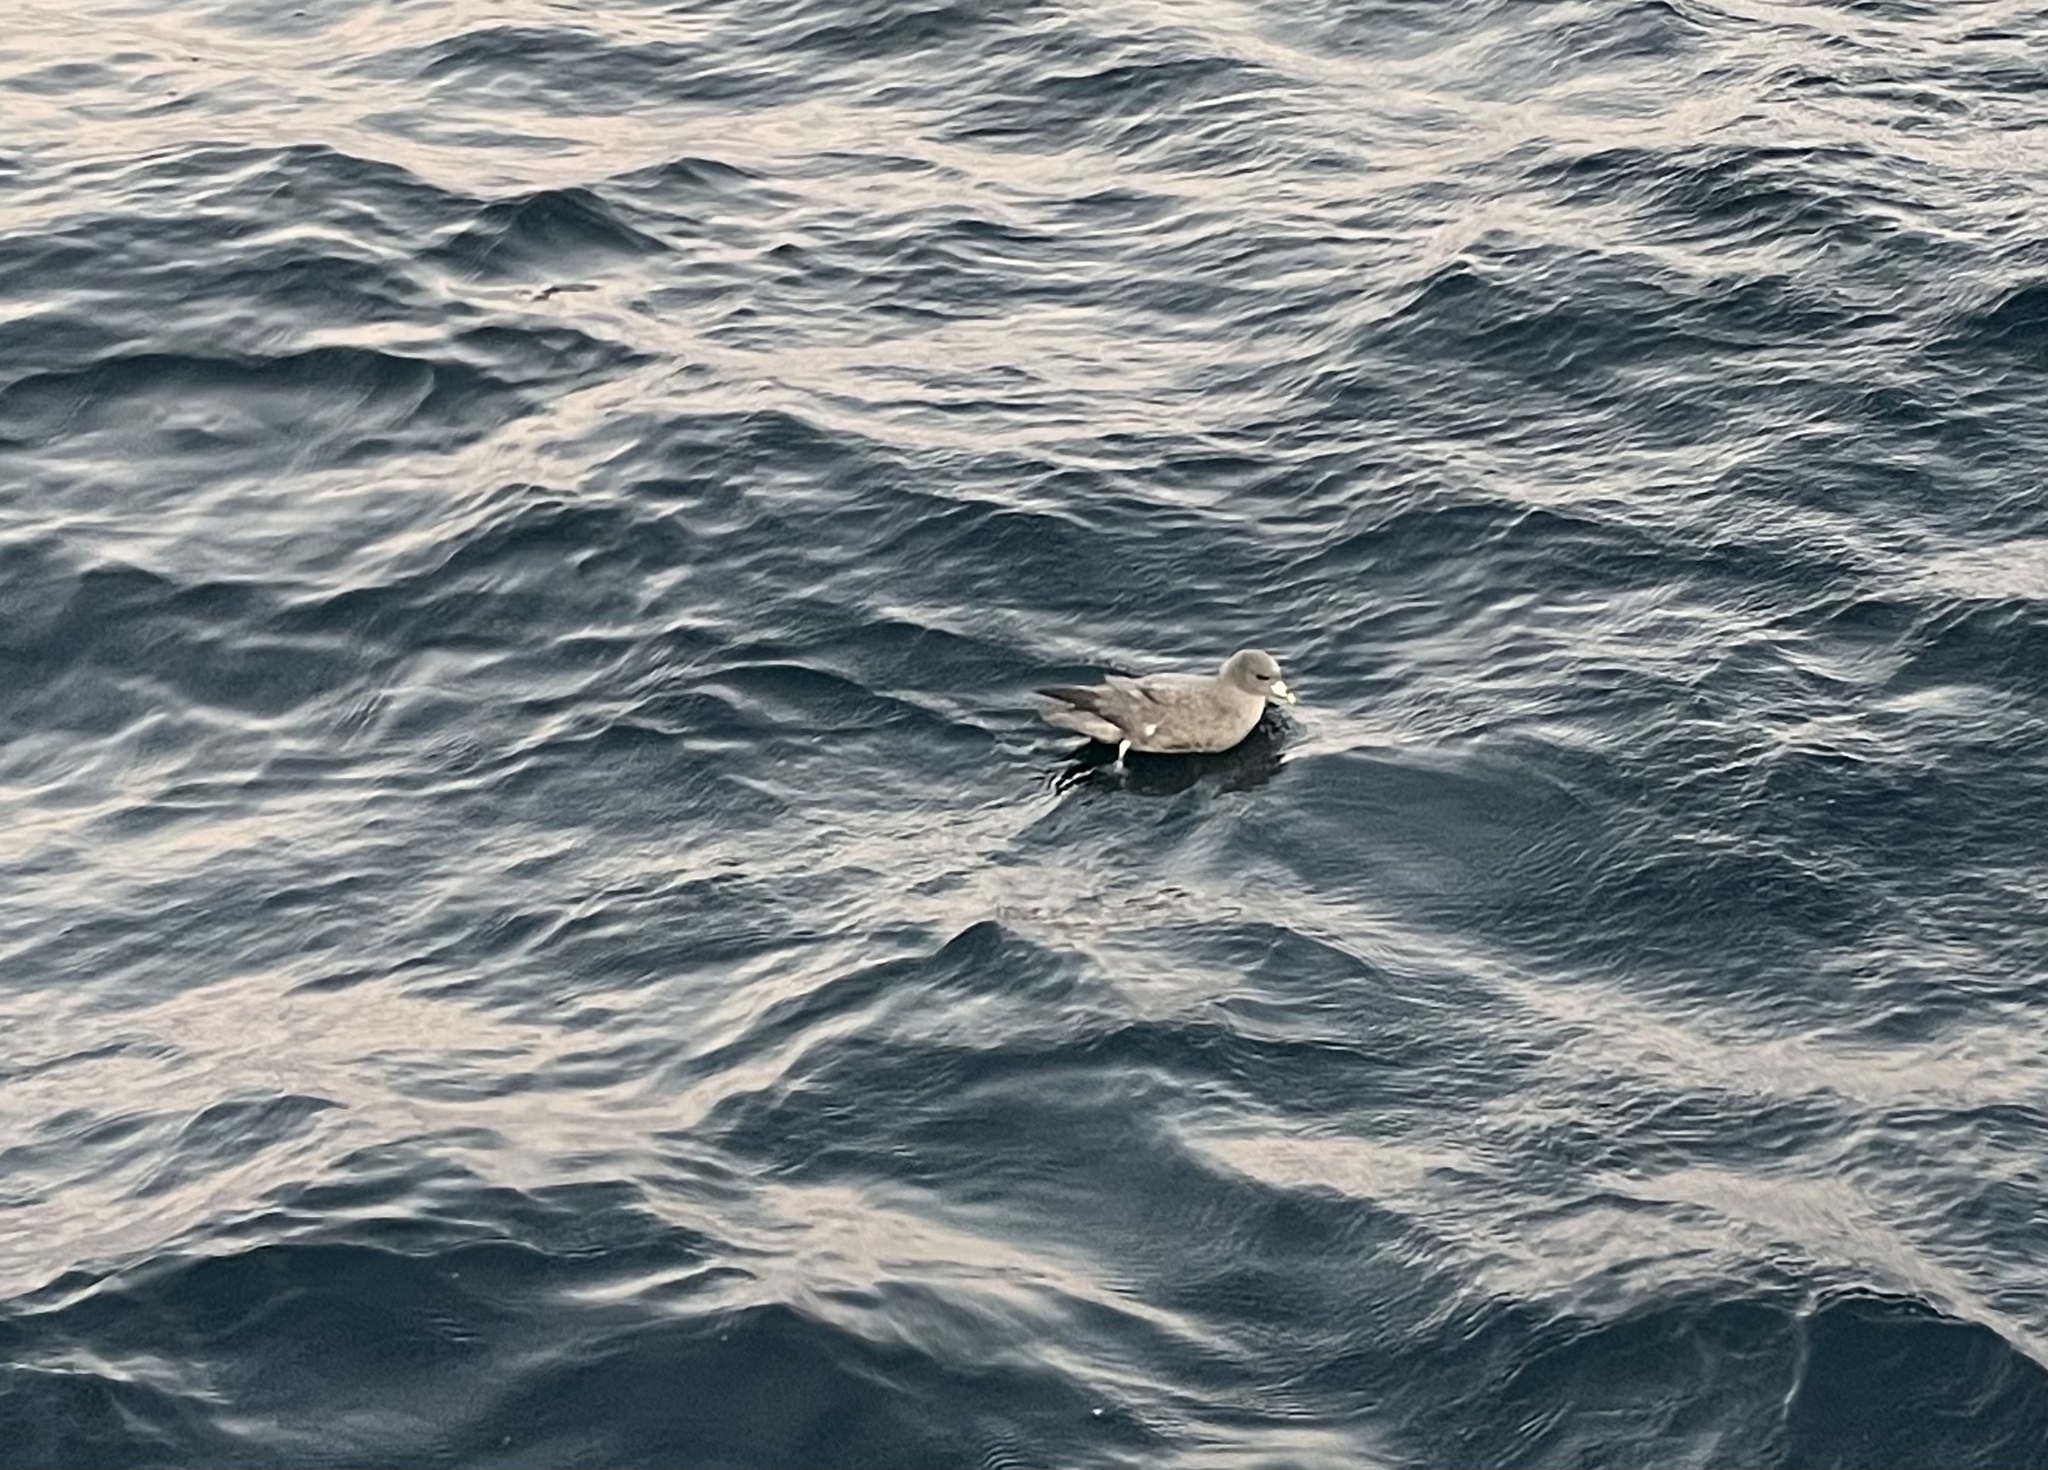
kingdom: Animalia
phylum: Chordata
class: Aves
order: Procellariiformes
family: Procellariidae
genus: Fulmarus
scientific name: Fulmarus glacialis
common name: Northern fulmar
